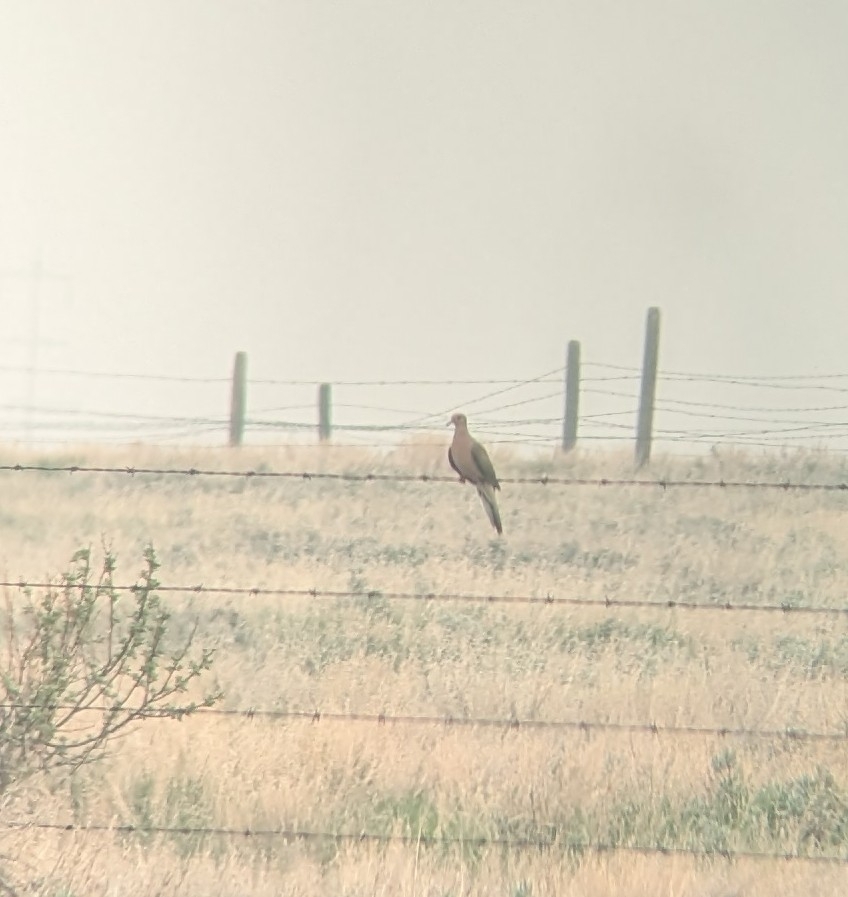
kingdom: Animalia
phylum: Chordata
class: Aves
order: Columbiformes
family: Columbidae
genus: Zenaida
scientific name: Zenaida macroura
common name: Mourning dove
